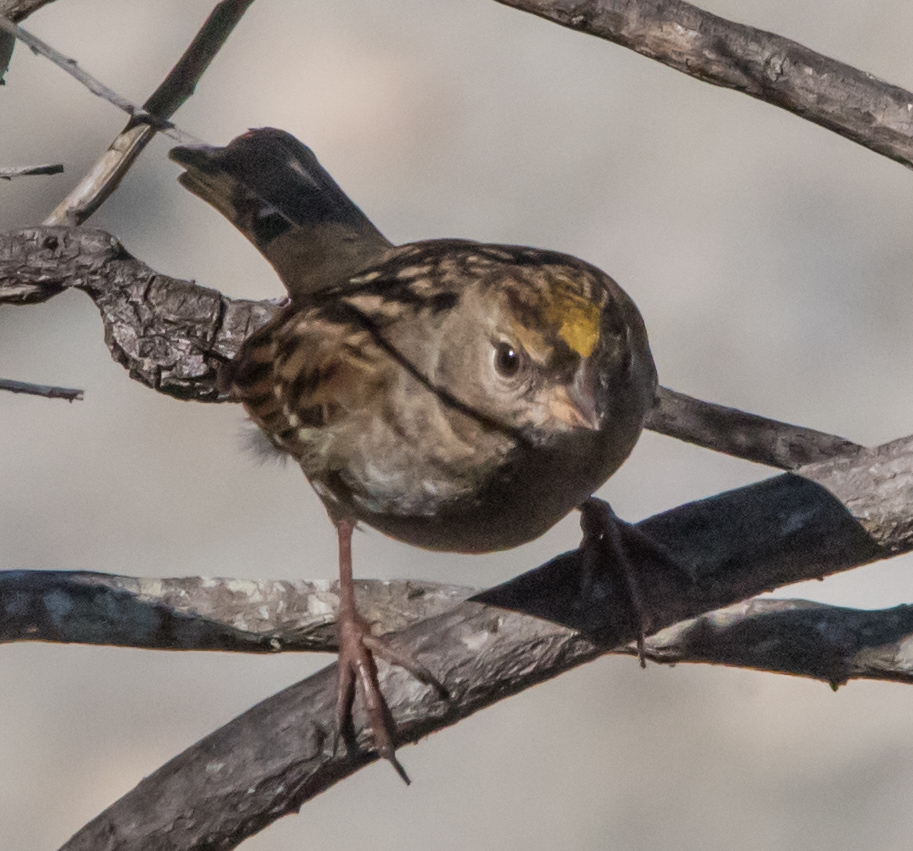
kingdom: Animalia
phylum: Chordata
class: Aves
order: Passeriformes
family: Passerellidae
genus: Zonotrichia
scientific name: Zonotrichia atricapilla
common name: Golden-crowned sparrow
